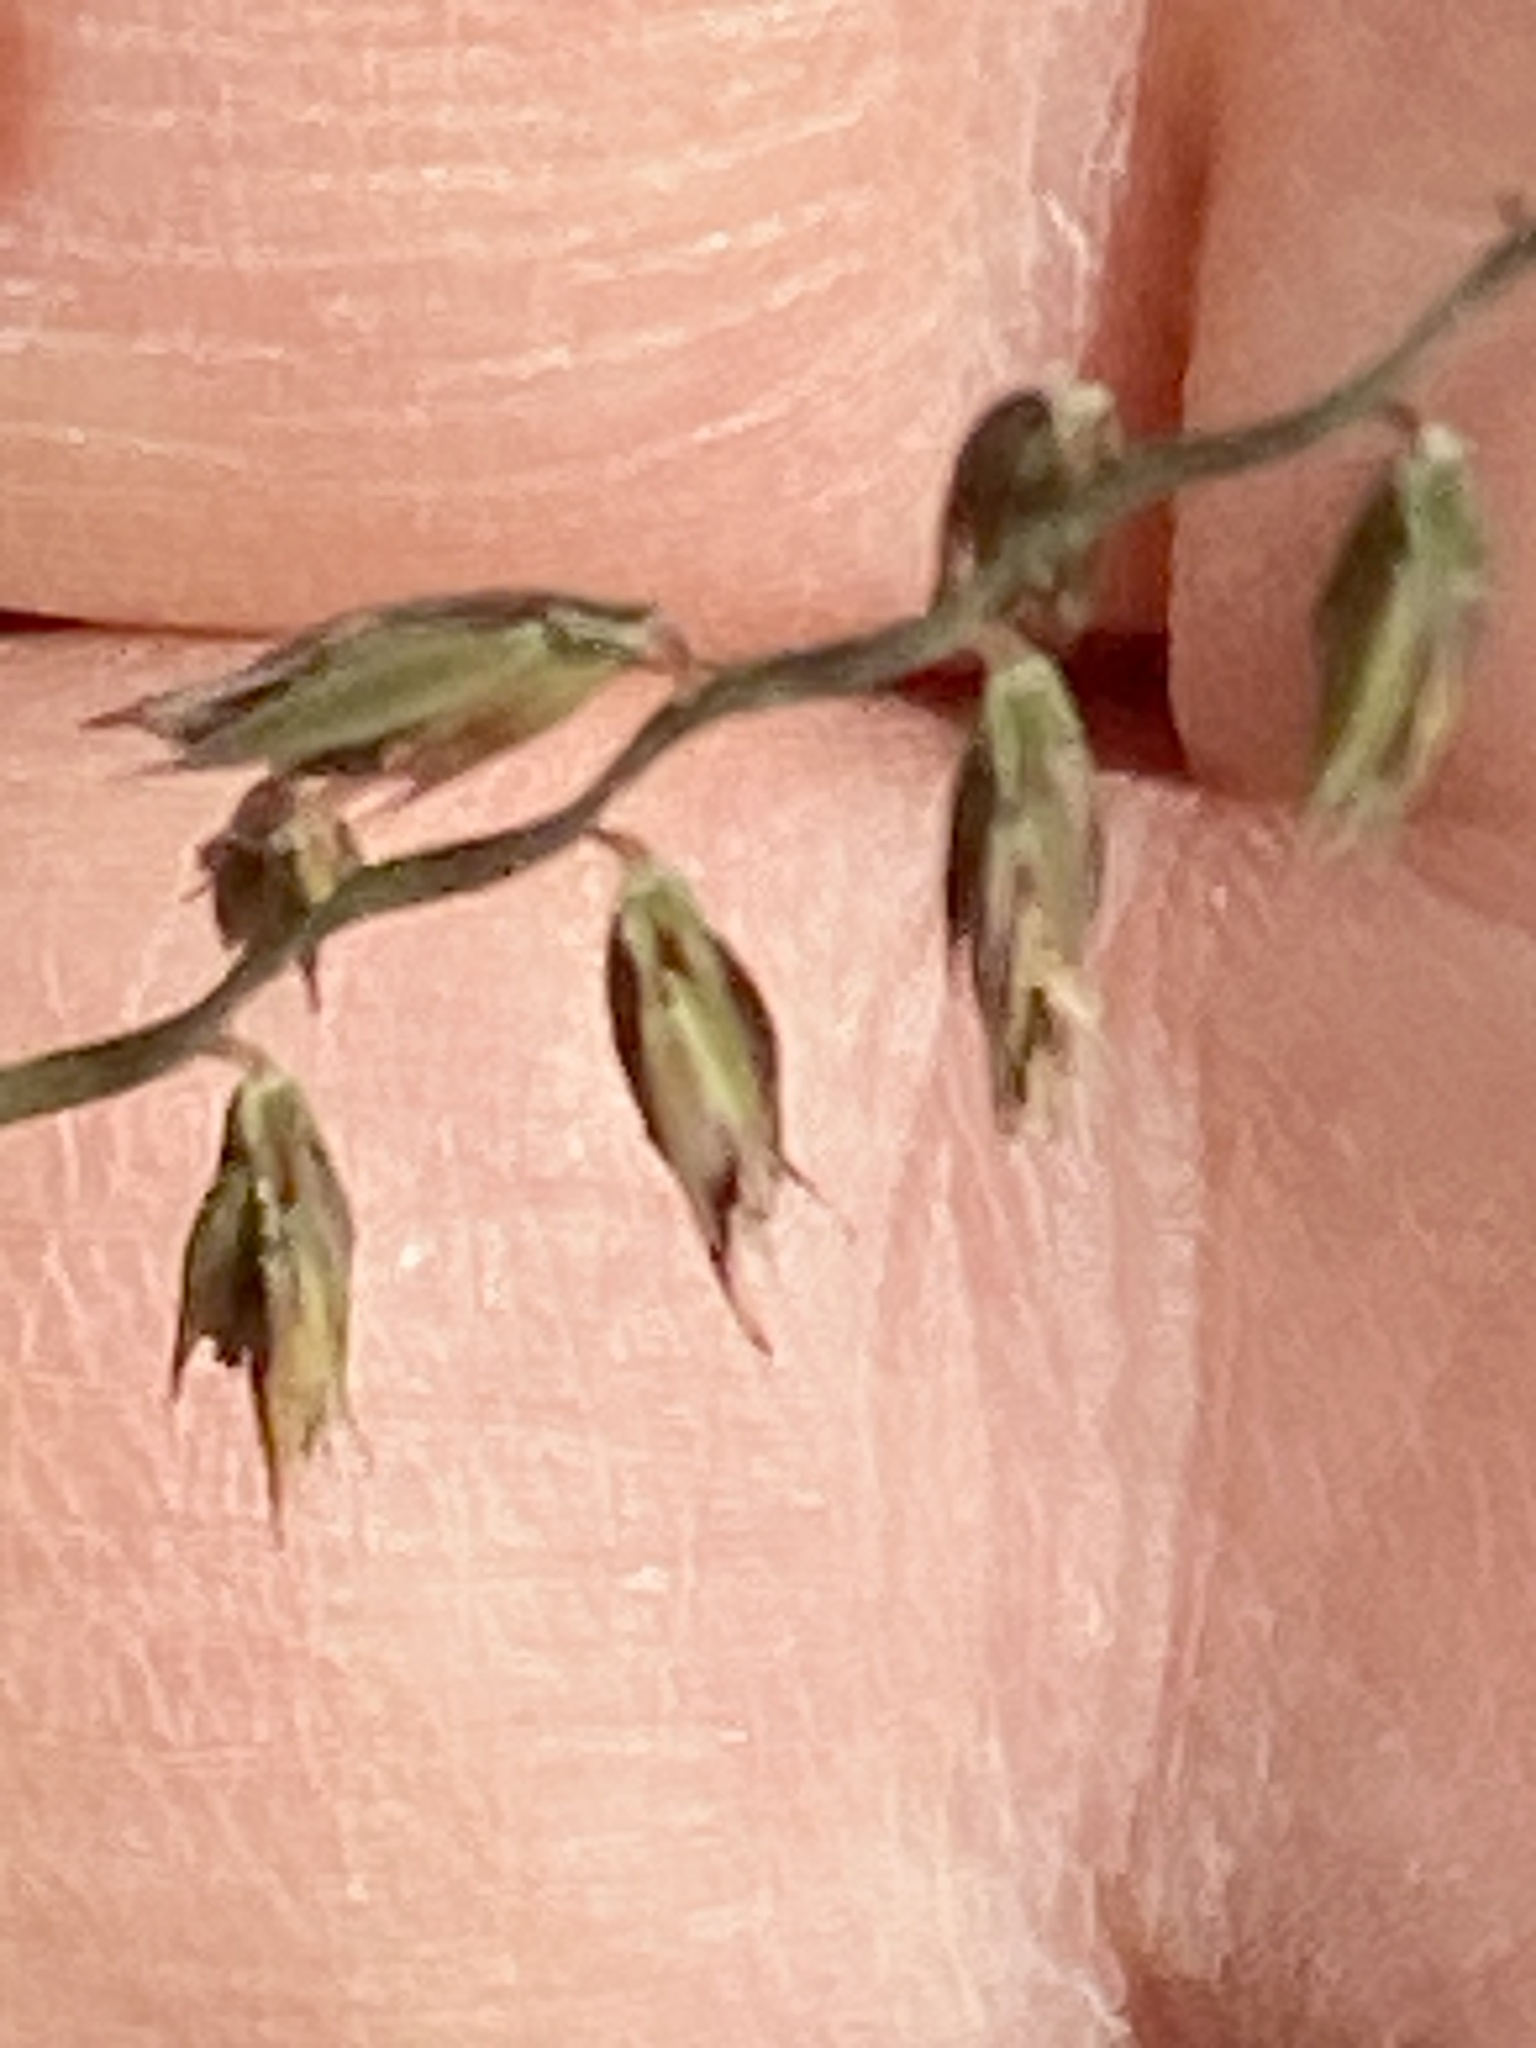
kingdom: Plantae
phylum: Tracheophyta
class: Liliopsida
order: Poales
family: Poaceae
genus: Bouteloua
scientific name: Bouteloua curtipendula
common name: Side-oats grama
